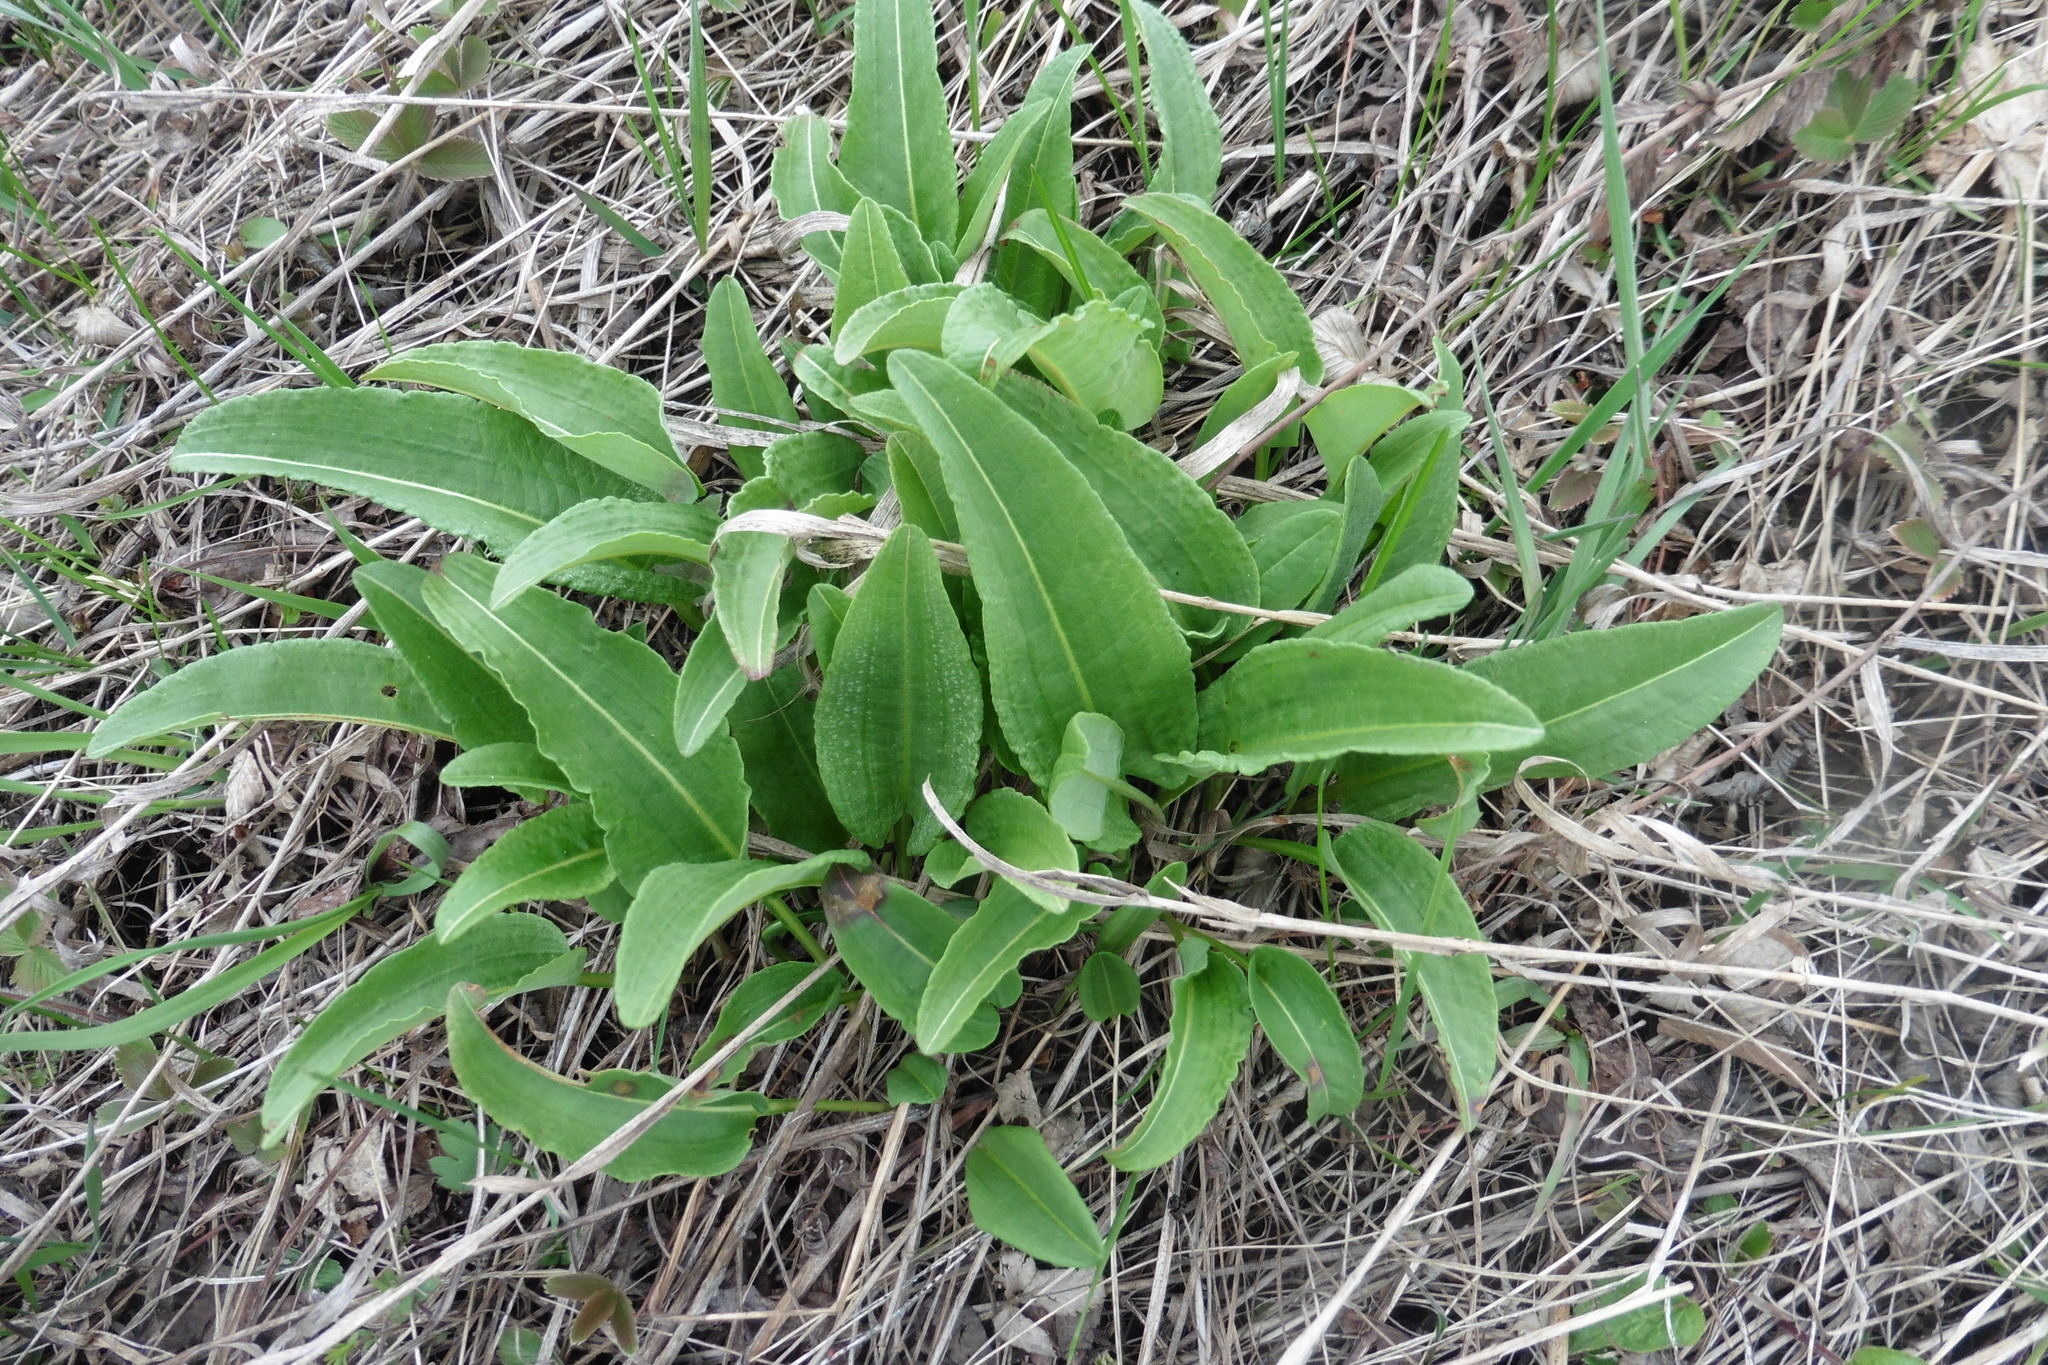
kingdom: Plantae
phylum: Tracheophyta
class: Magnoliopsida
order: Caryophyllales
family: Polygonaceae
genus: Bistorta
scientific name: Bistorta officinalis
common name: Common bistort
